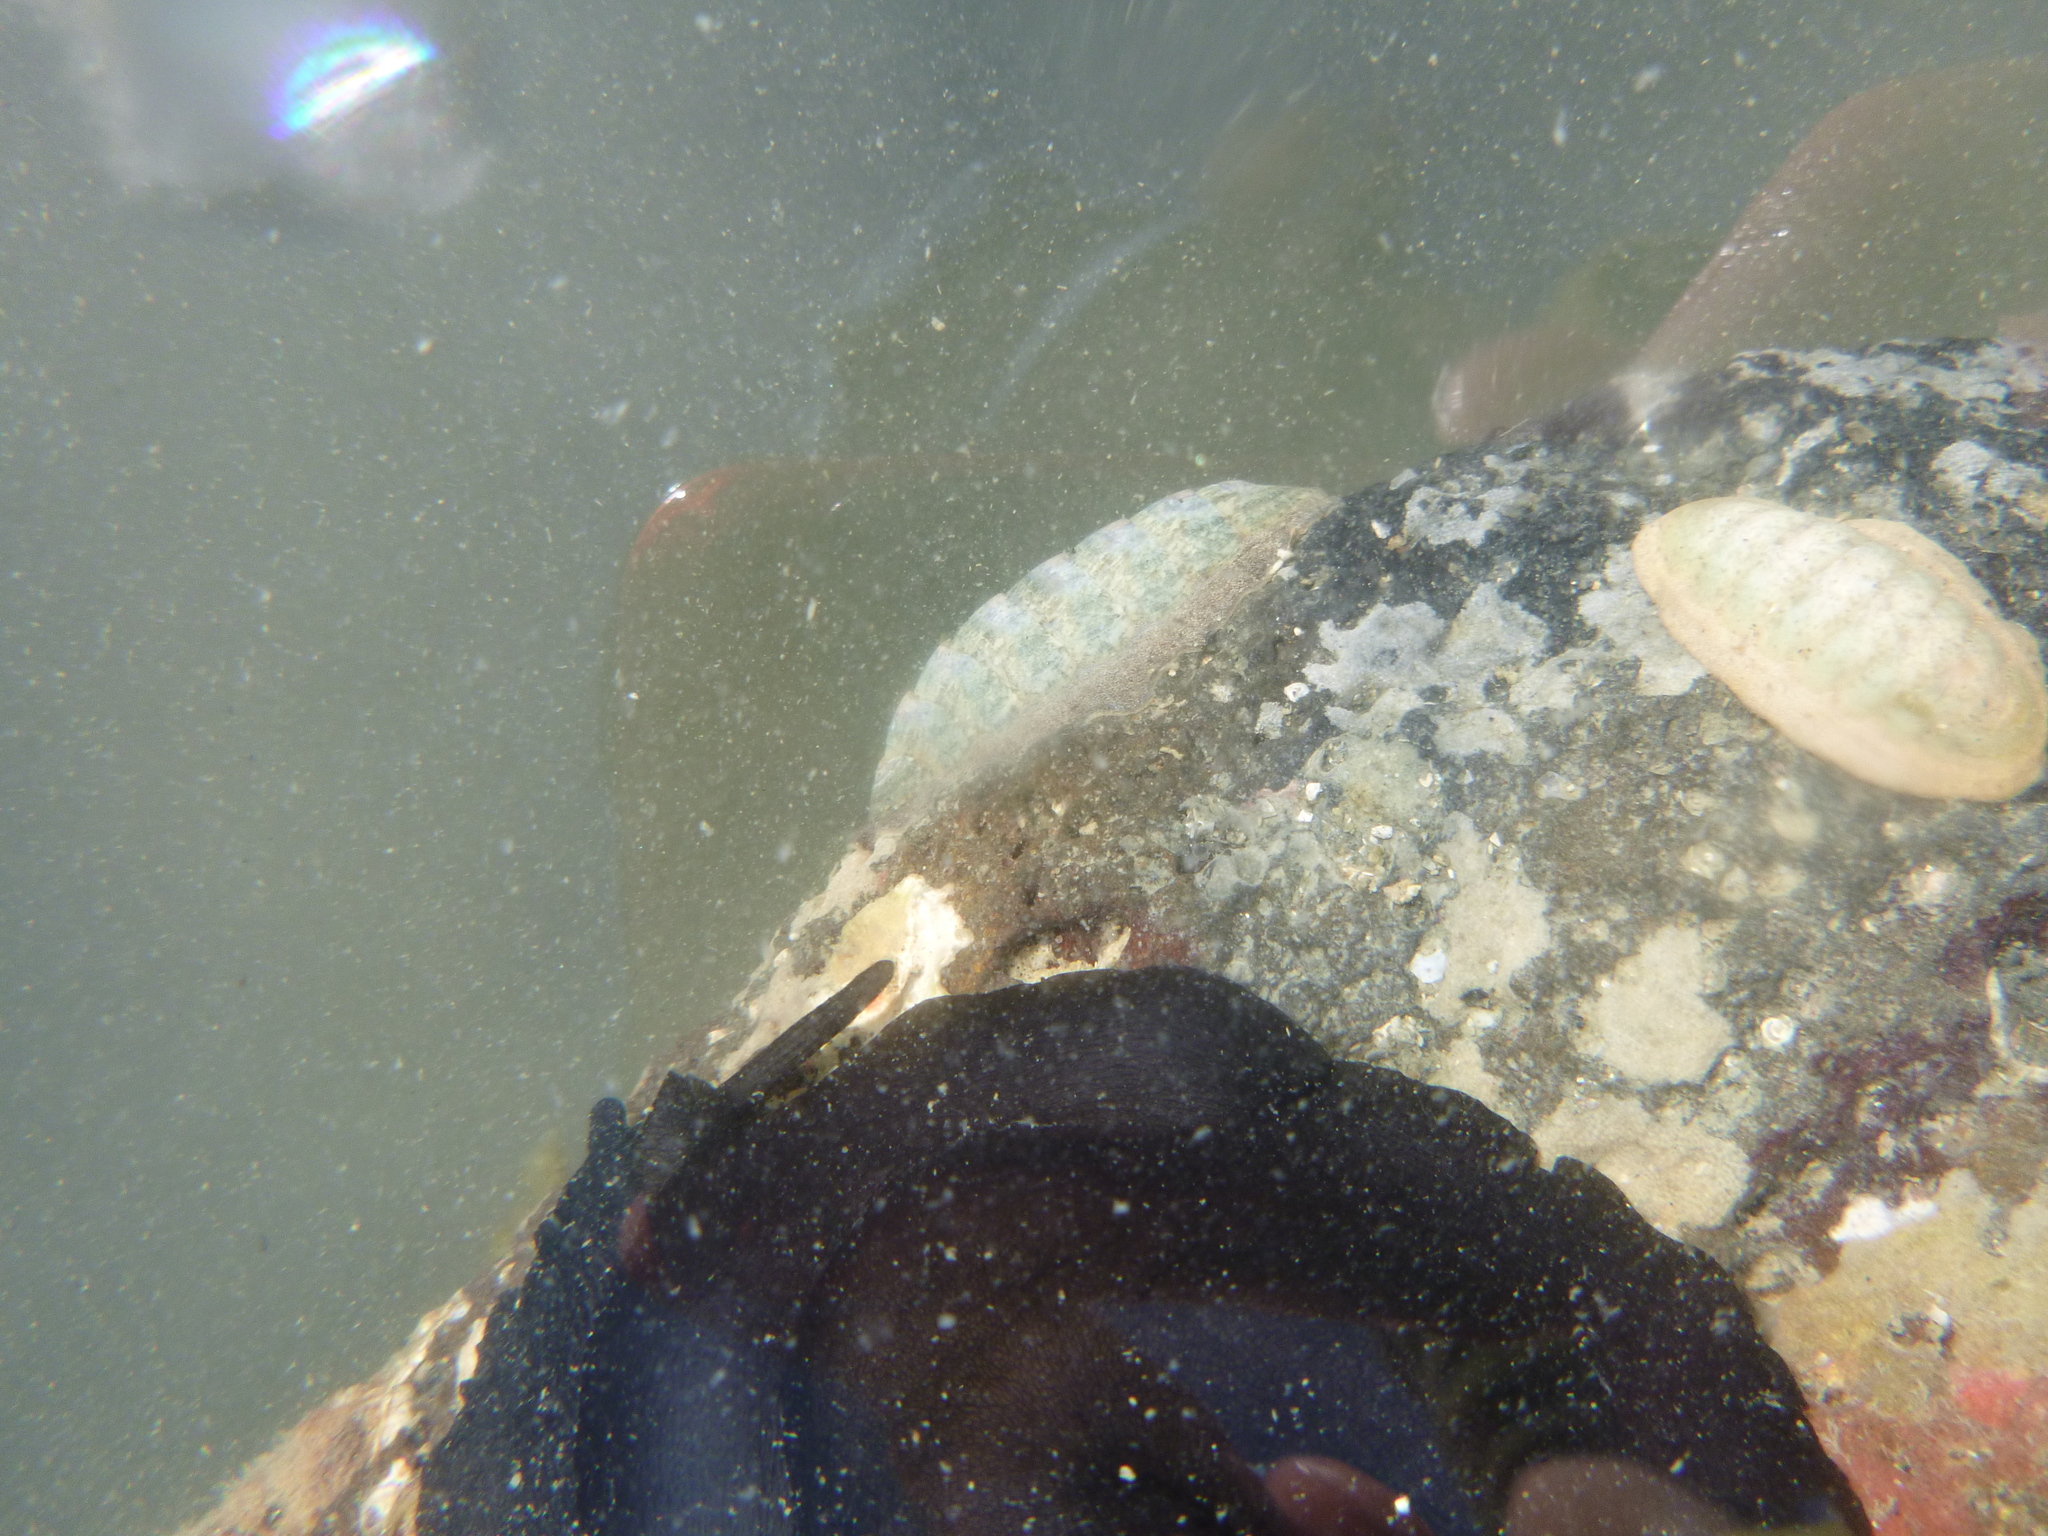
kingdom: Animalia
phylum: Mollusca
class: Polyplacophora
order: Chitonida
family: Ischnochitonidae
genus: Ischnochiton
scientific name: Ischnochiton maorianus
